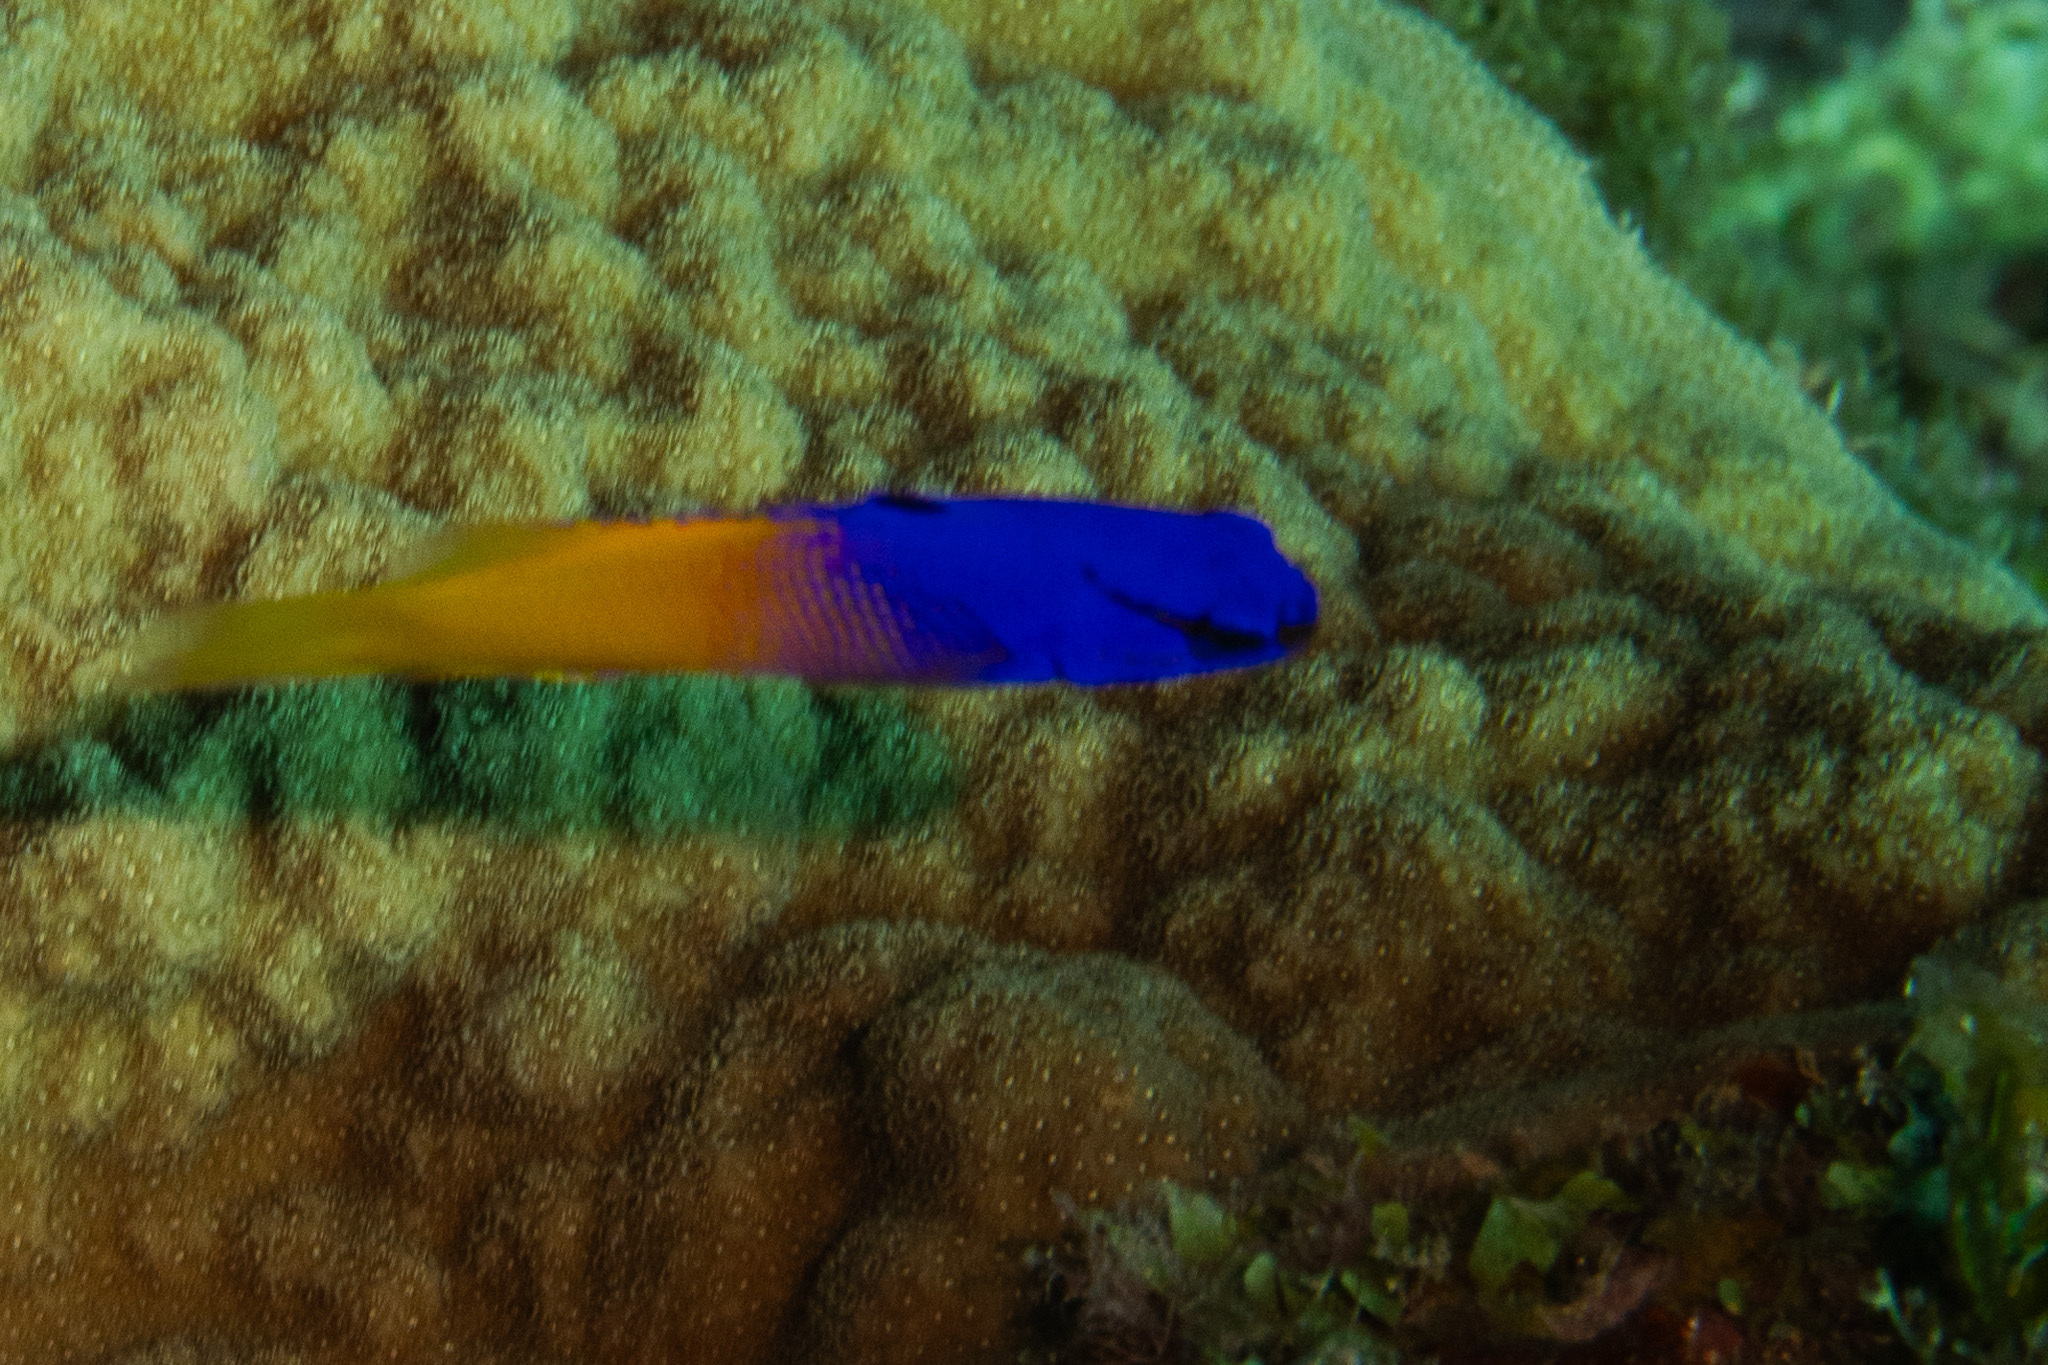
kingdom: Animalia
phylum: Chordata
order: Perciformes
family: Grammatidae
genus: Gramma
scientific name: Gramma loreto
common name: Fairy basslet
